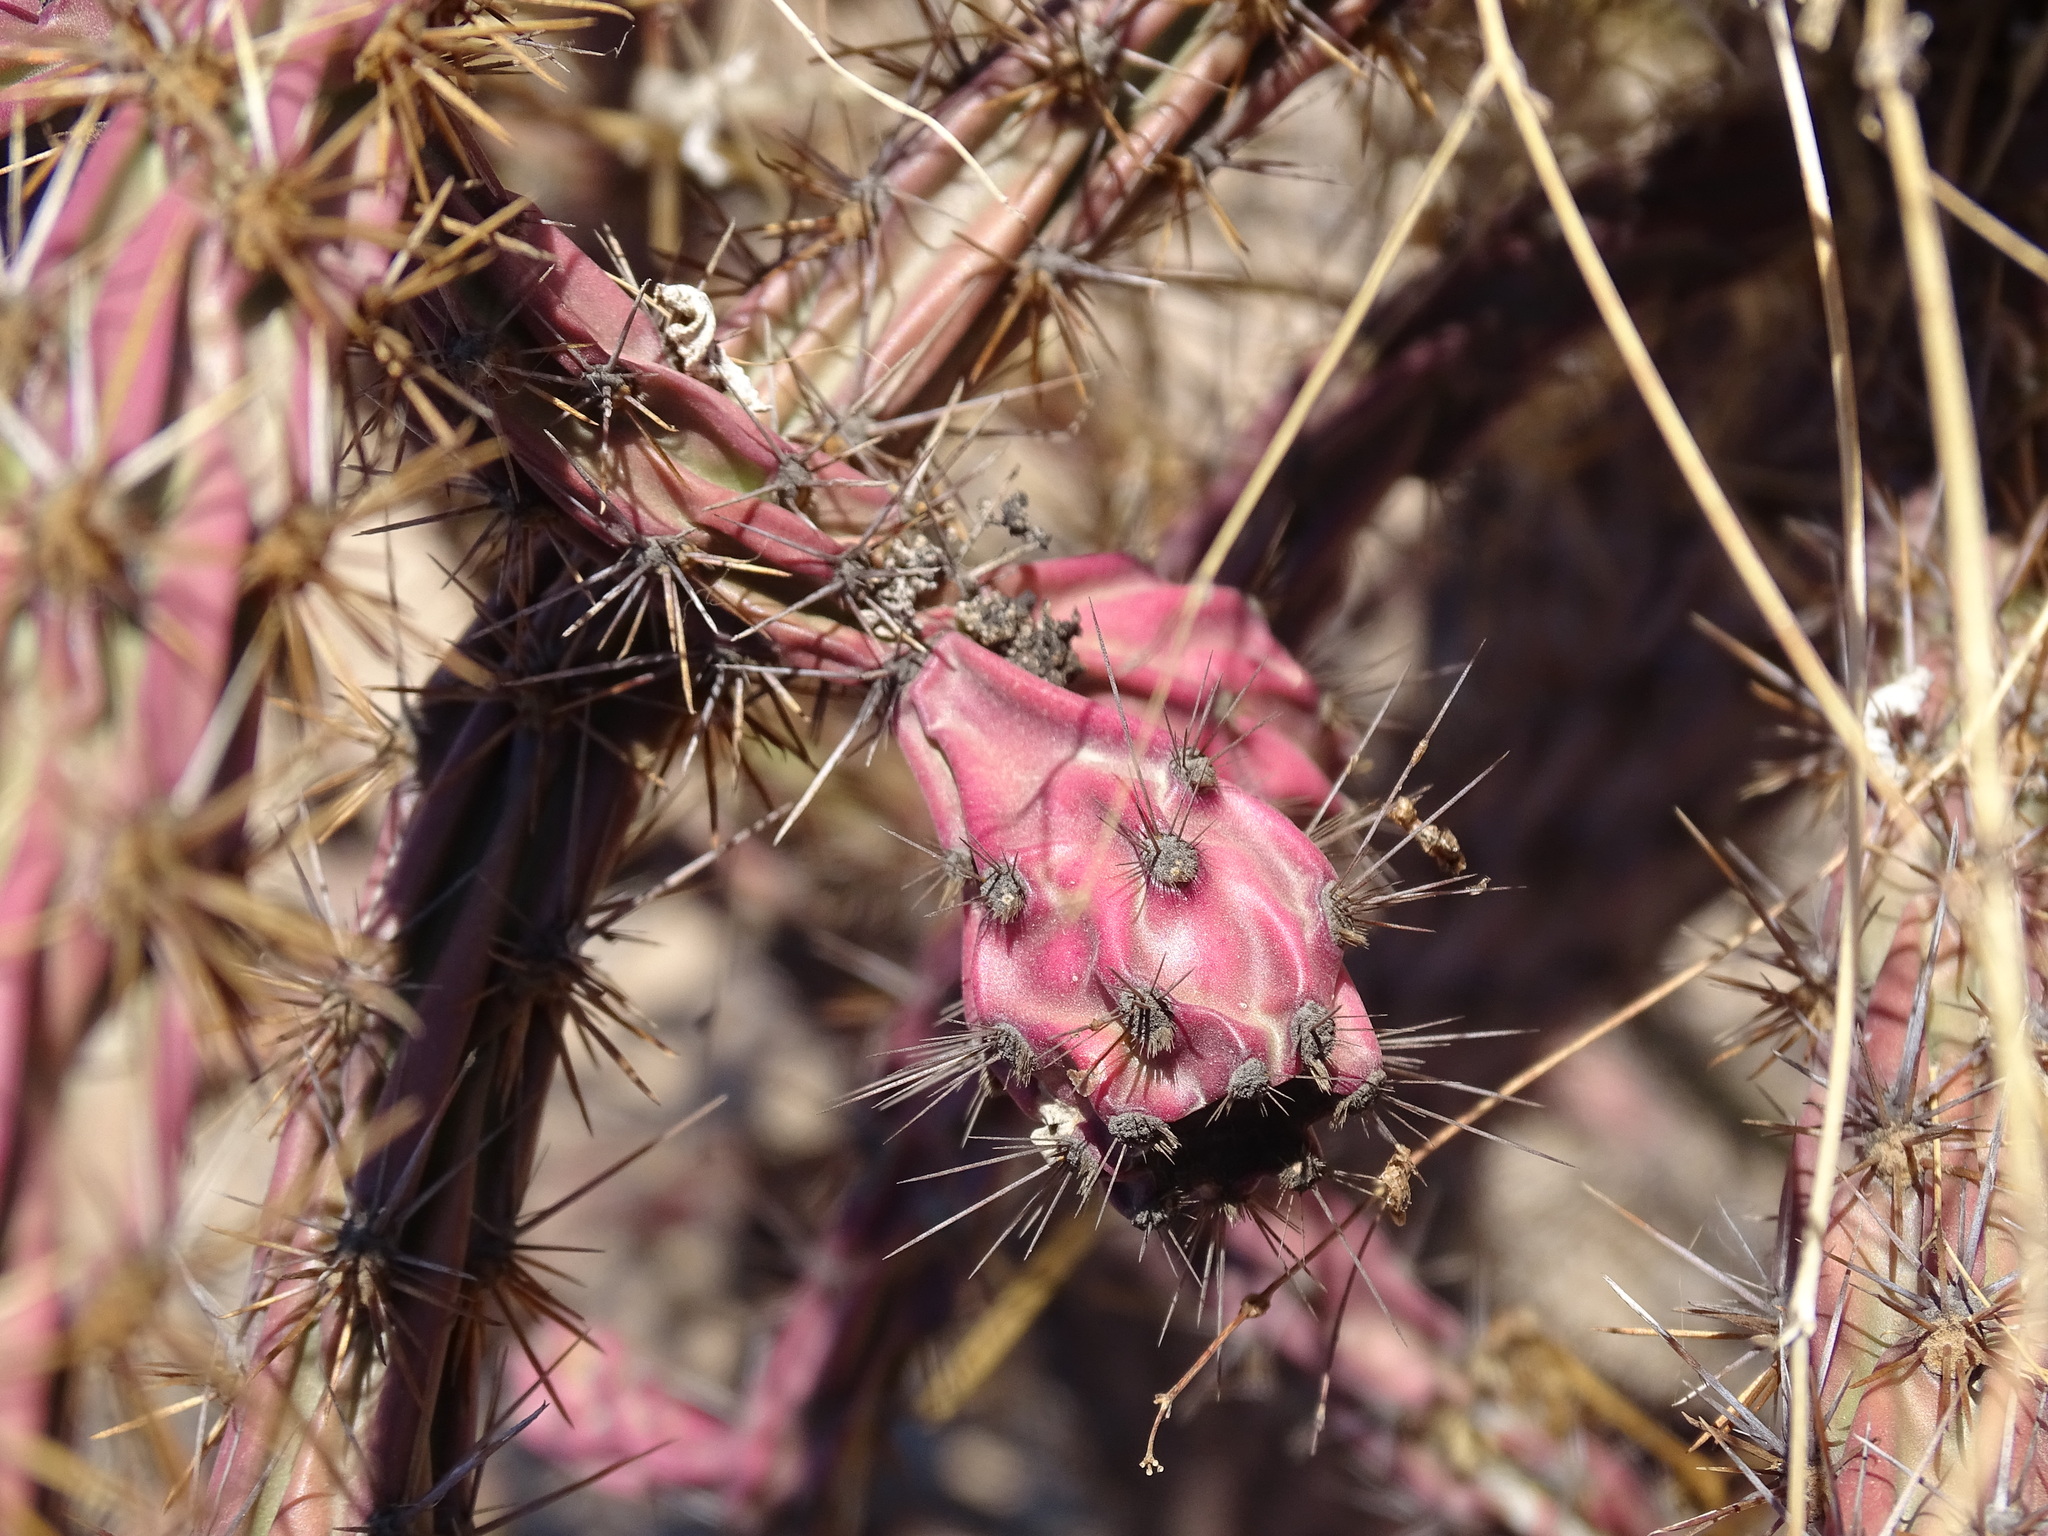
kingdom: Plantae
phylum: Tracheophyta
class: Magnoliopsida
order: Caryophyllales
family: Cactaceae
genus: Cylindropuntia
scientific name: Cylindropuntia thurberi
